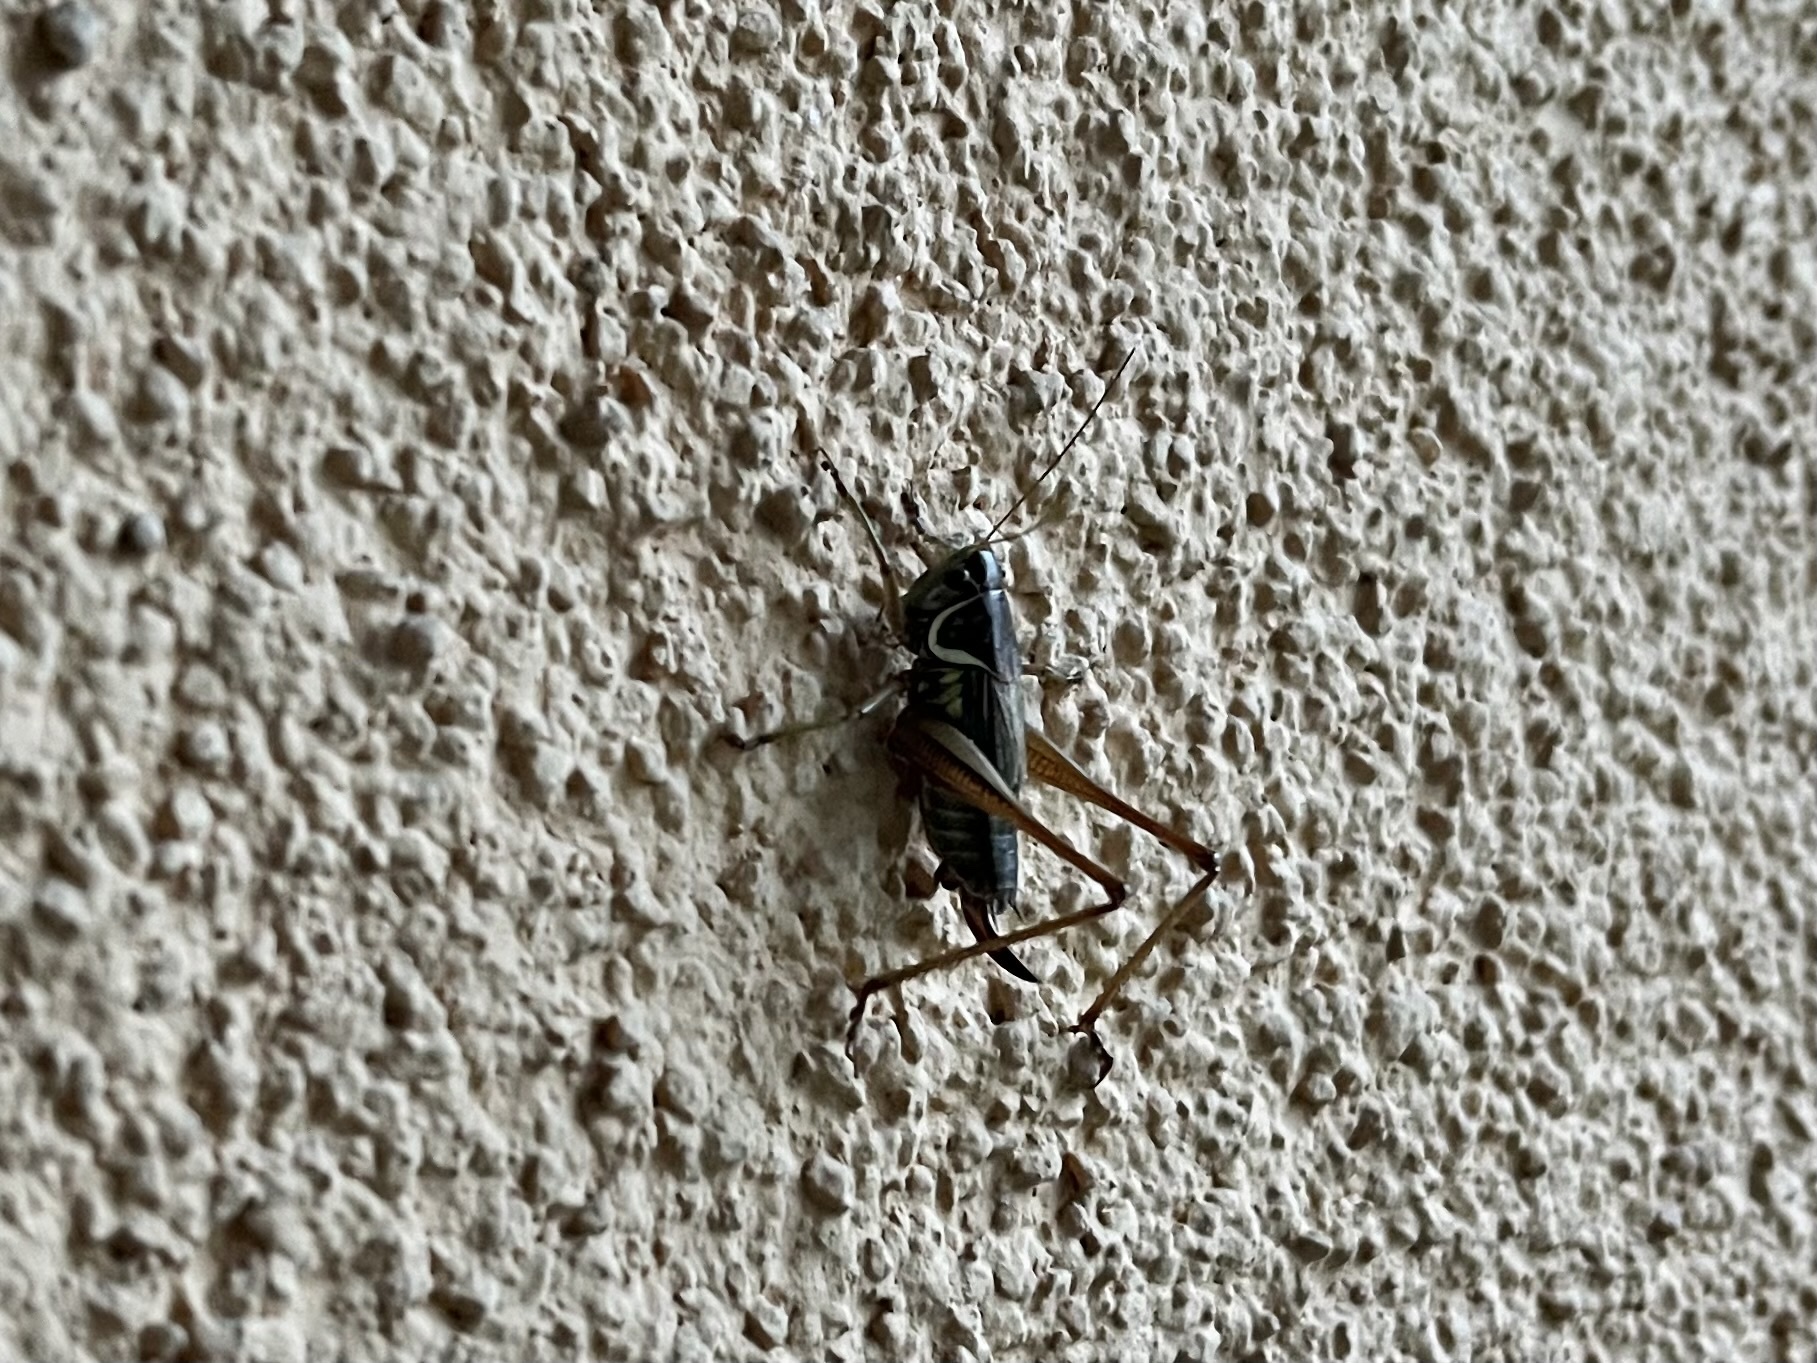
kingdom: Animalia
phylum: Arthropoda
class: Insecta
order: Orthoptera
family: Tettigoniidae
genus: Roeseliana
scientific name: Roeseliana roeselii
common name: Roesel's bush cricket
